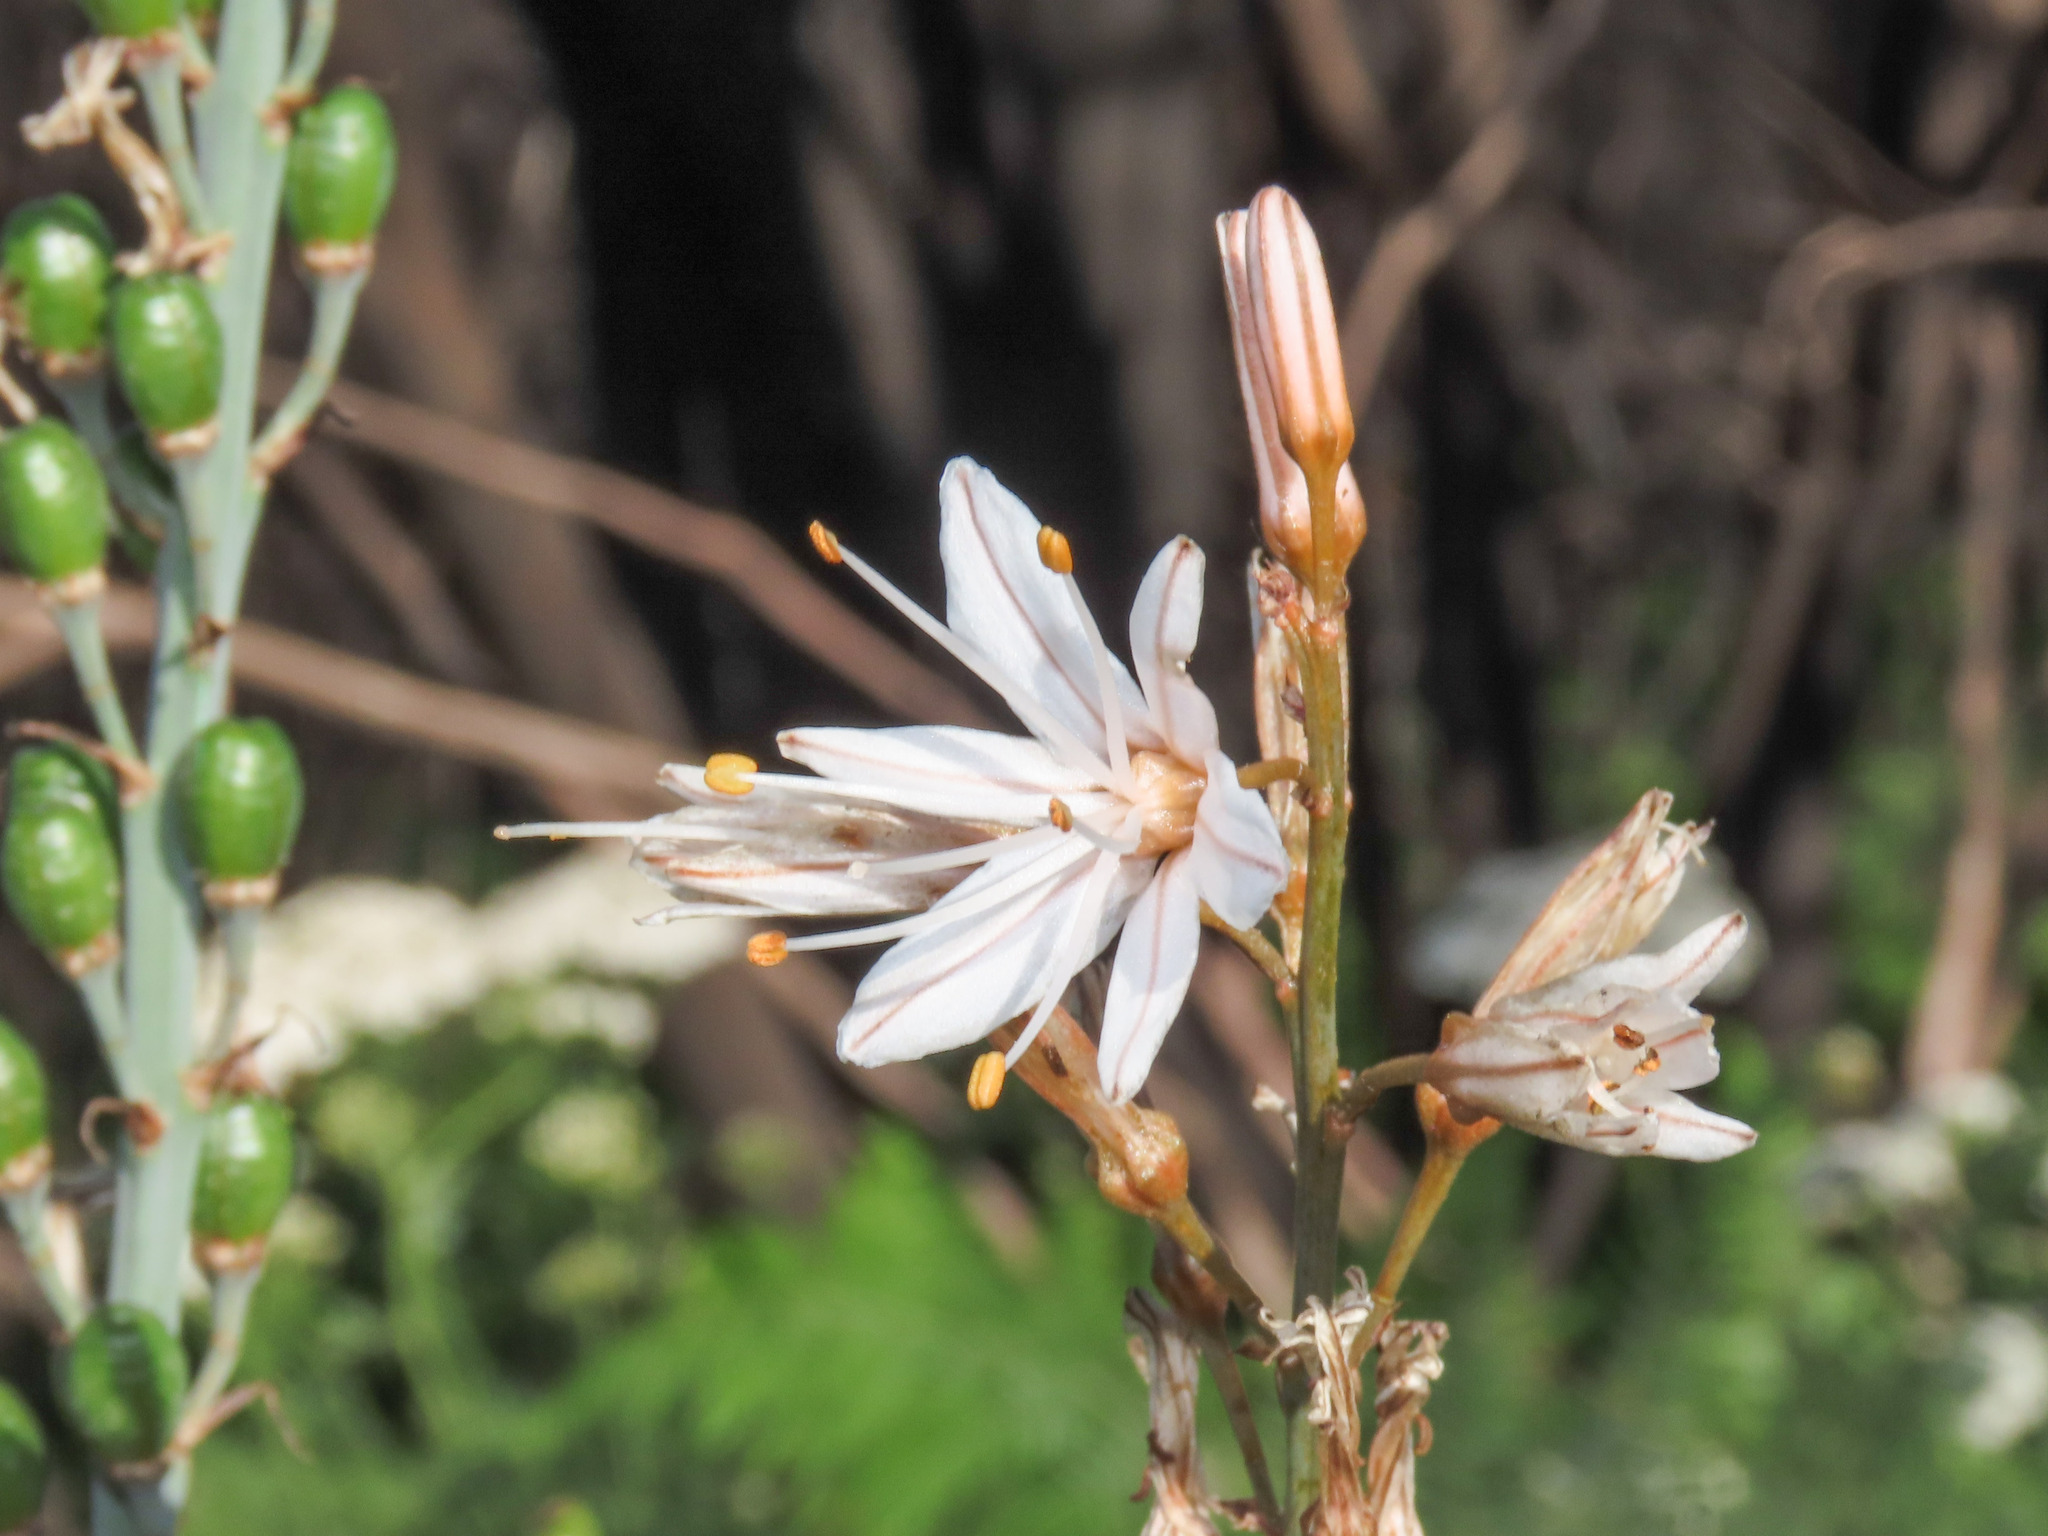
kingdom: Plantae
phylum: Tracheophyta
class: Liliopsida
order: Asparagales
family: Asphodelaceae
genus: Asphodelus
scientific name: Asphodelus ramosus
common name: Silverrod
